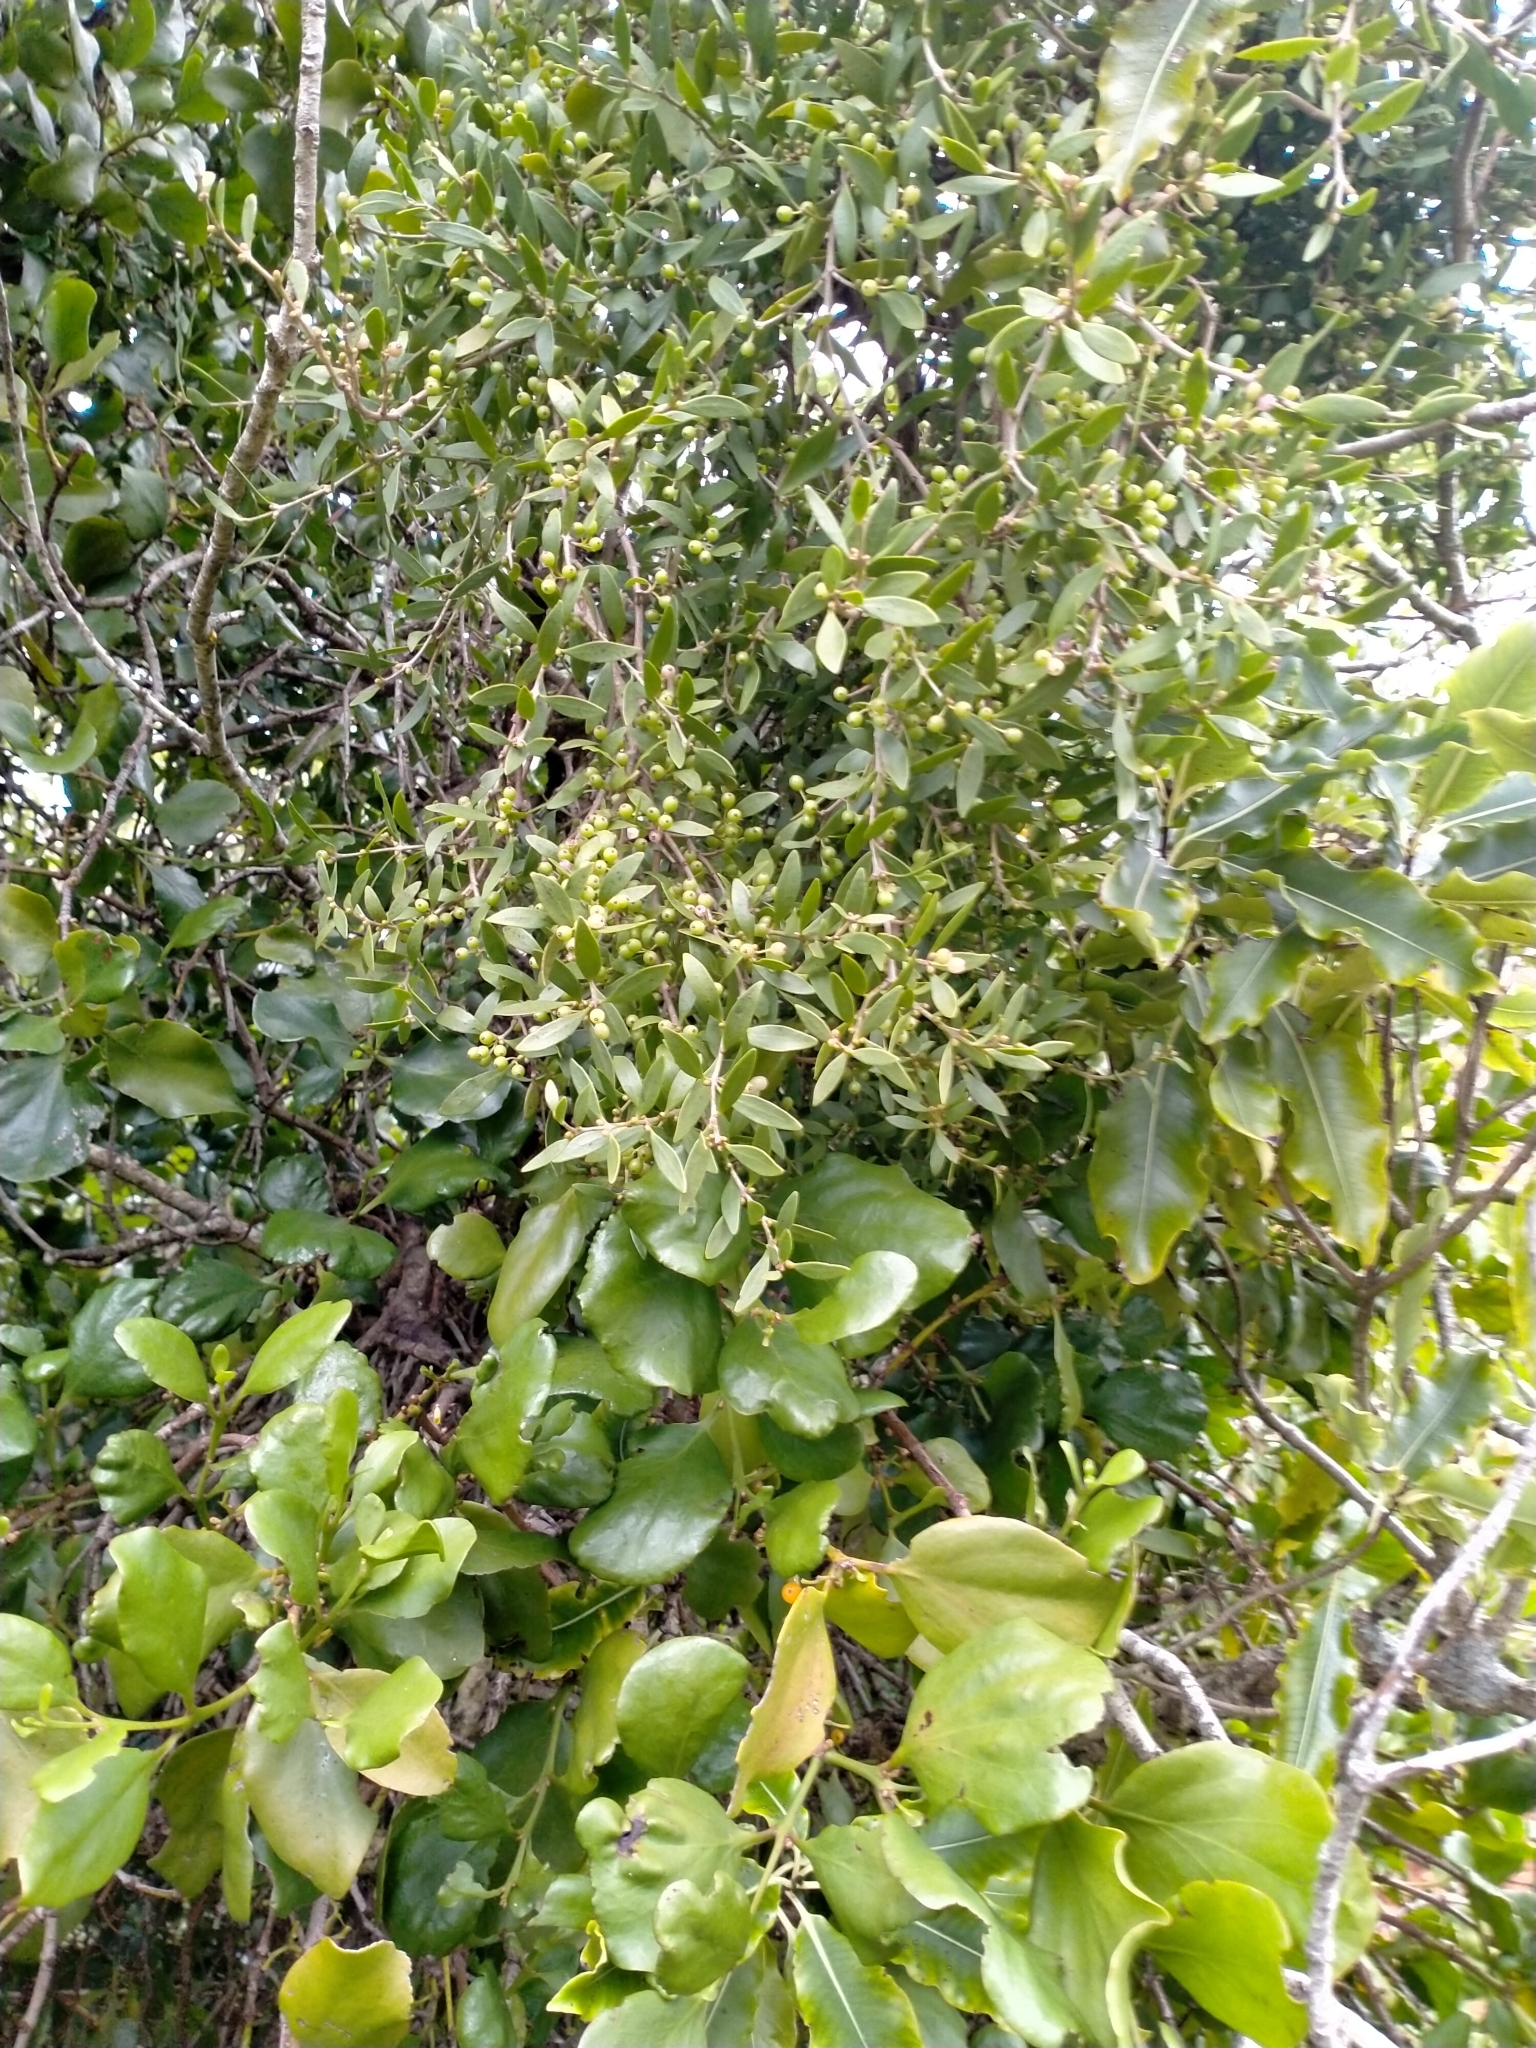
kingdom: Plantae
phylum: Tracheophyta
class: Magnoliopsida
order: Santalales
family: Loranthaceae
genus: Tupeia
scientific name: Tupeia antarctica
